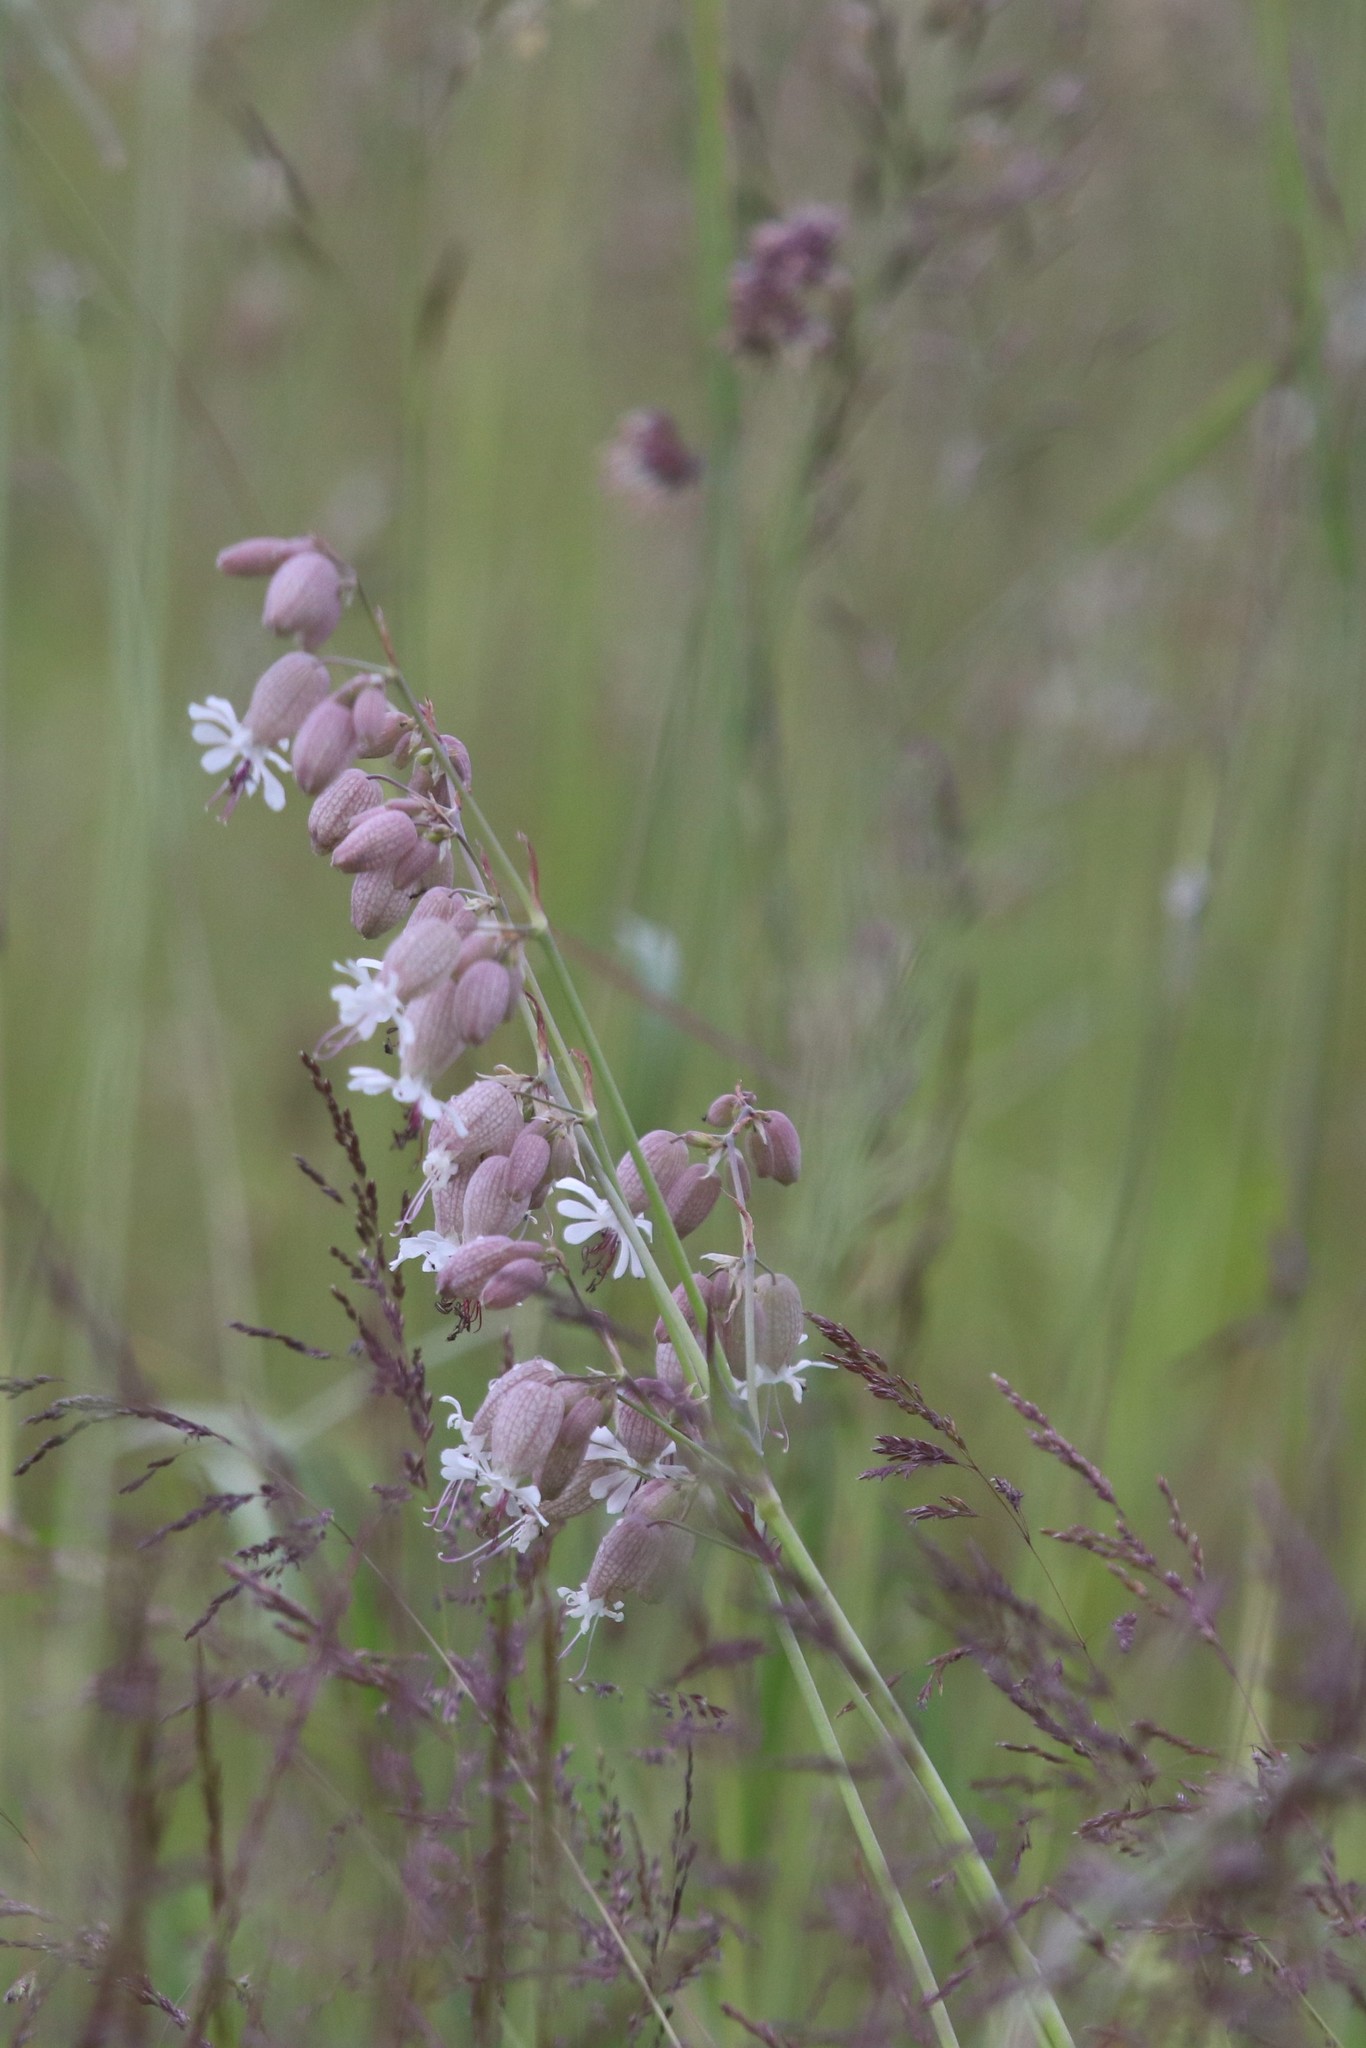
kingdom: Plantae
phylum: Tracheophyta
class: Magnoliopsida
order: Caryophyllales
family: Caryophyllaceae
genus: Silene
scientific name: Silene vulgaris
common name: Bladder campion
